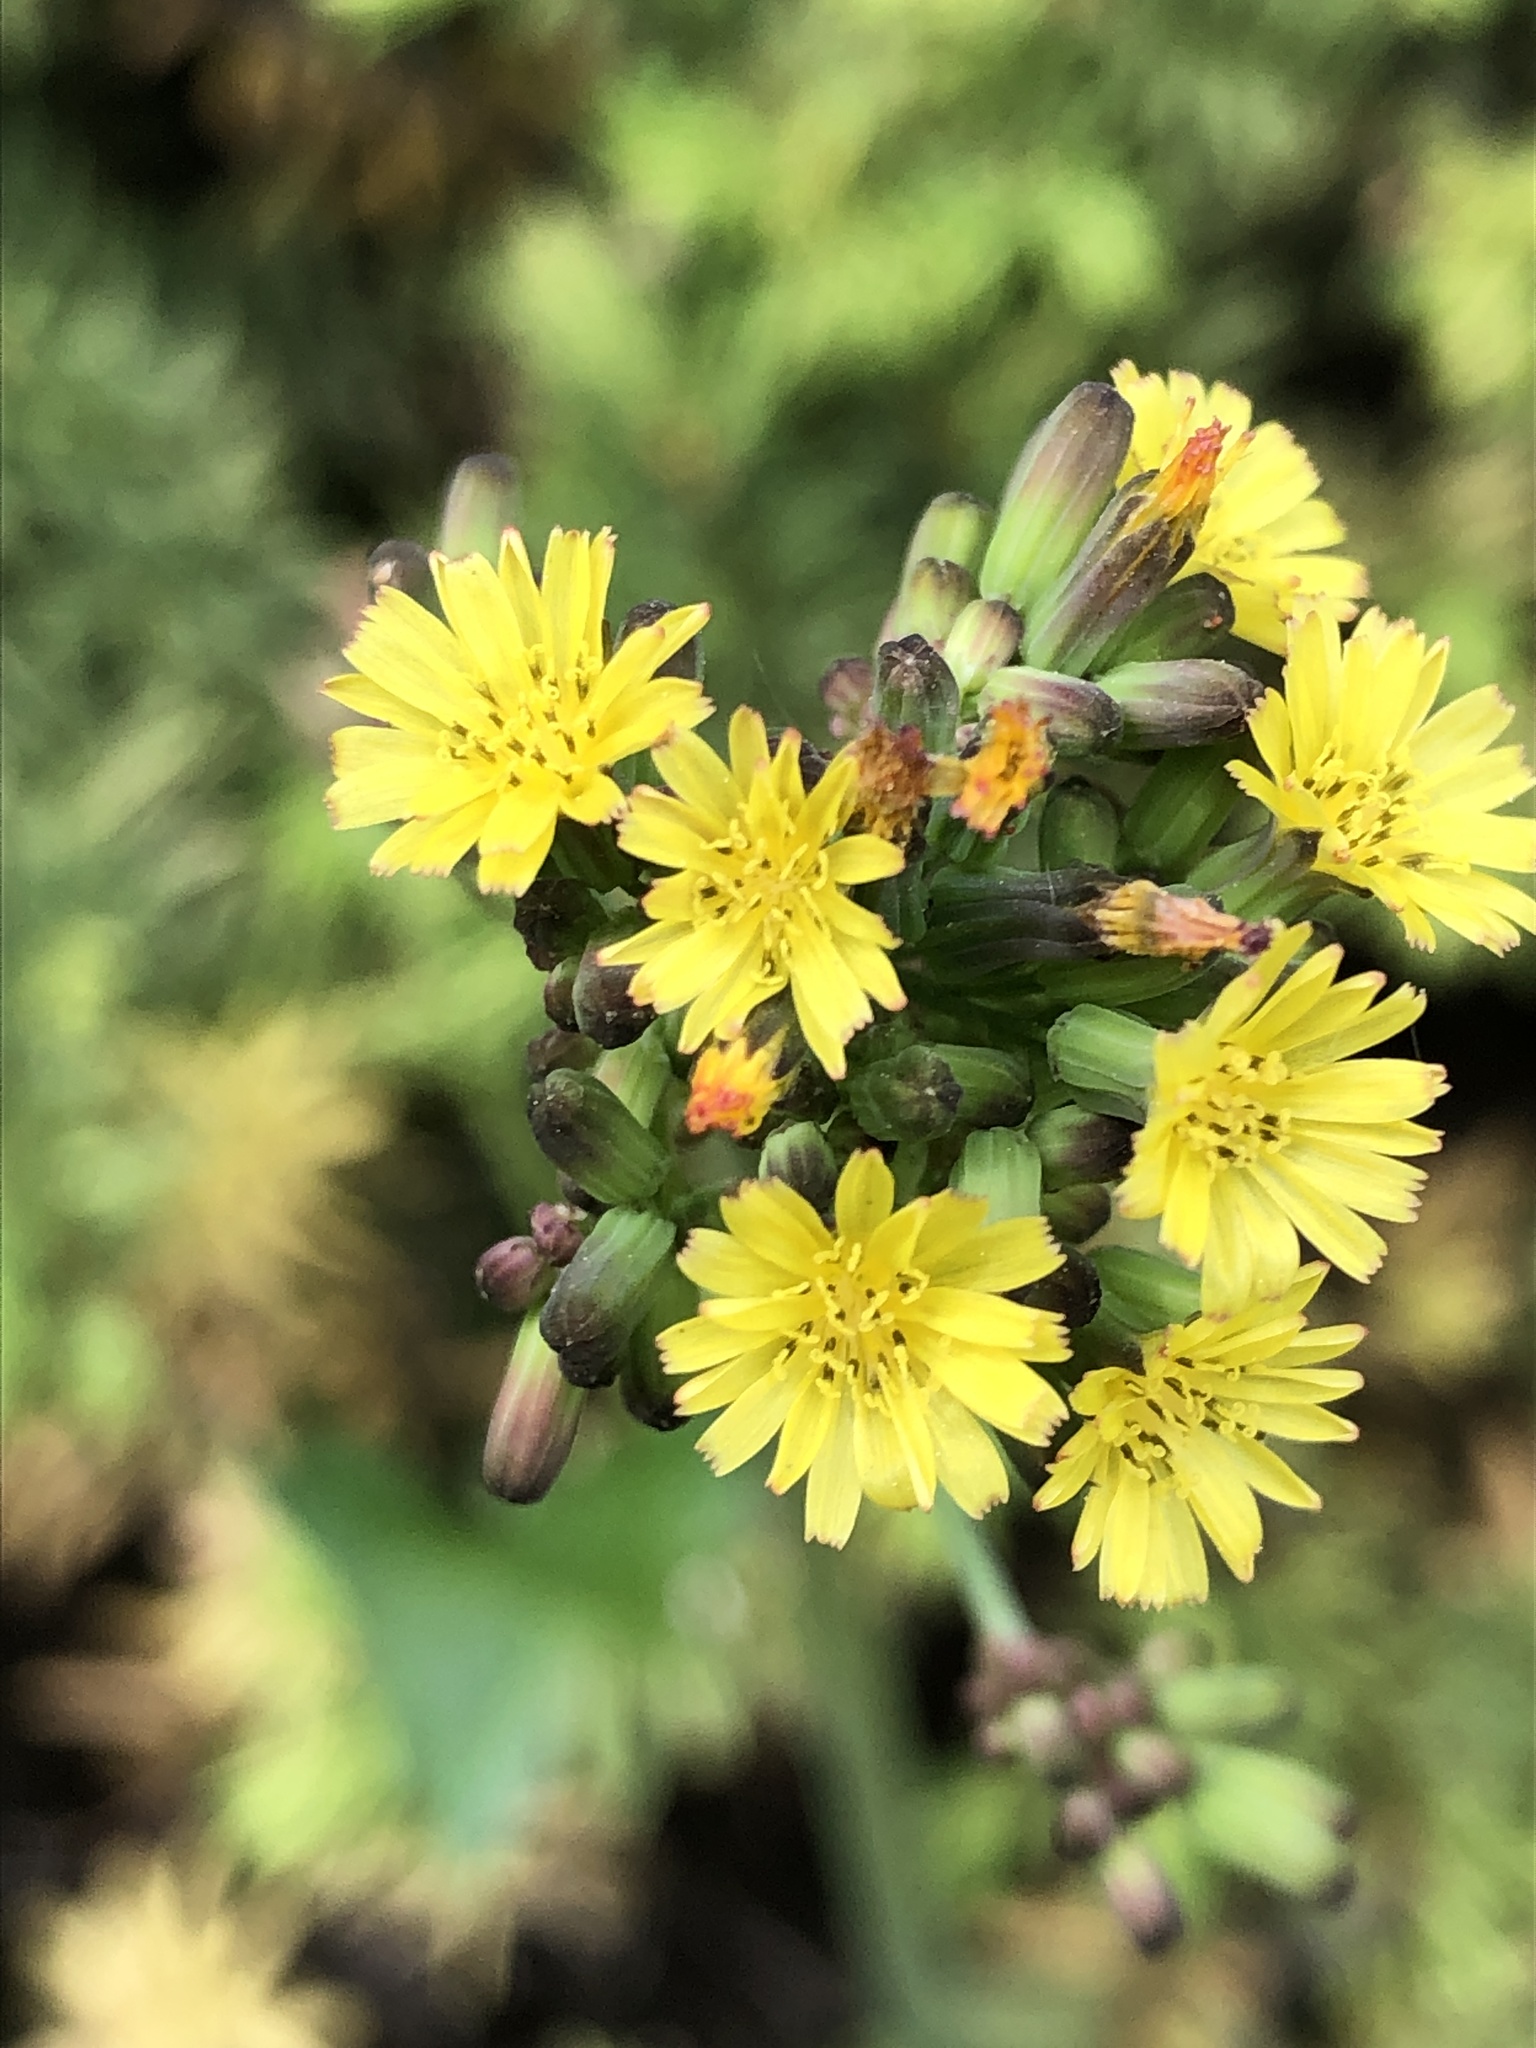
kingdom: Plantae
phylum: Tracheophyta
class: Magnoliopsida
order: Asterales
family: Asteraceae
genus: Youngia
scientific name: Youngia japonica
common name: Oriental false hawksbeard
